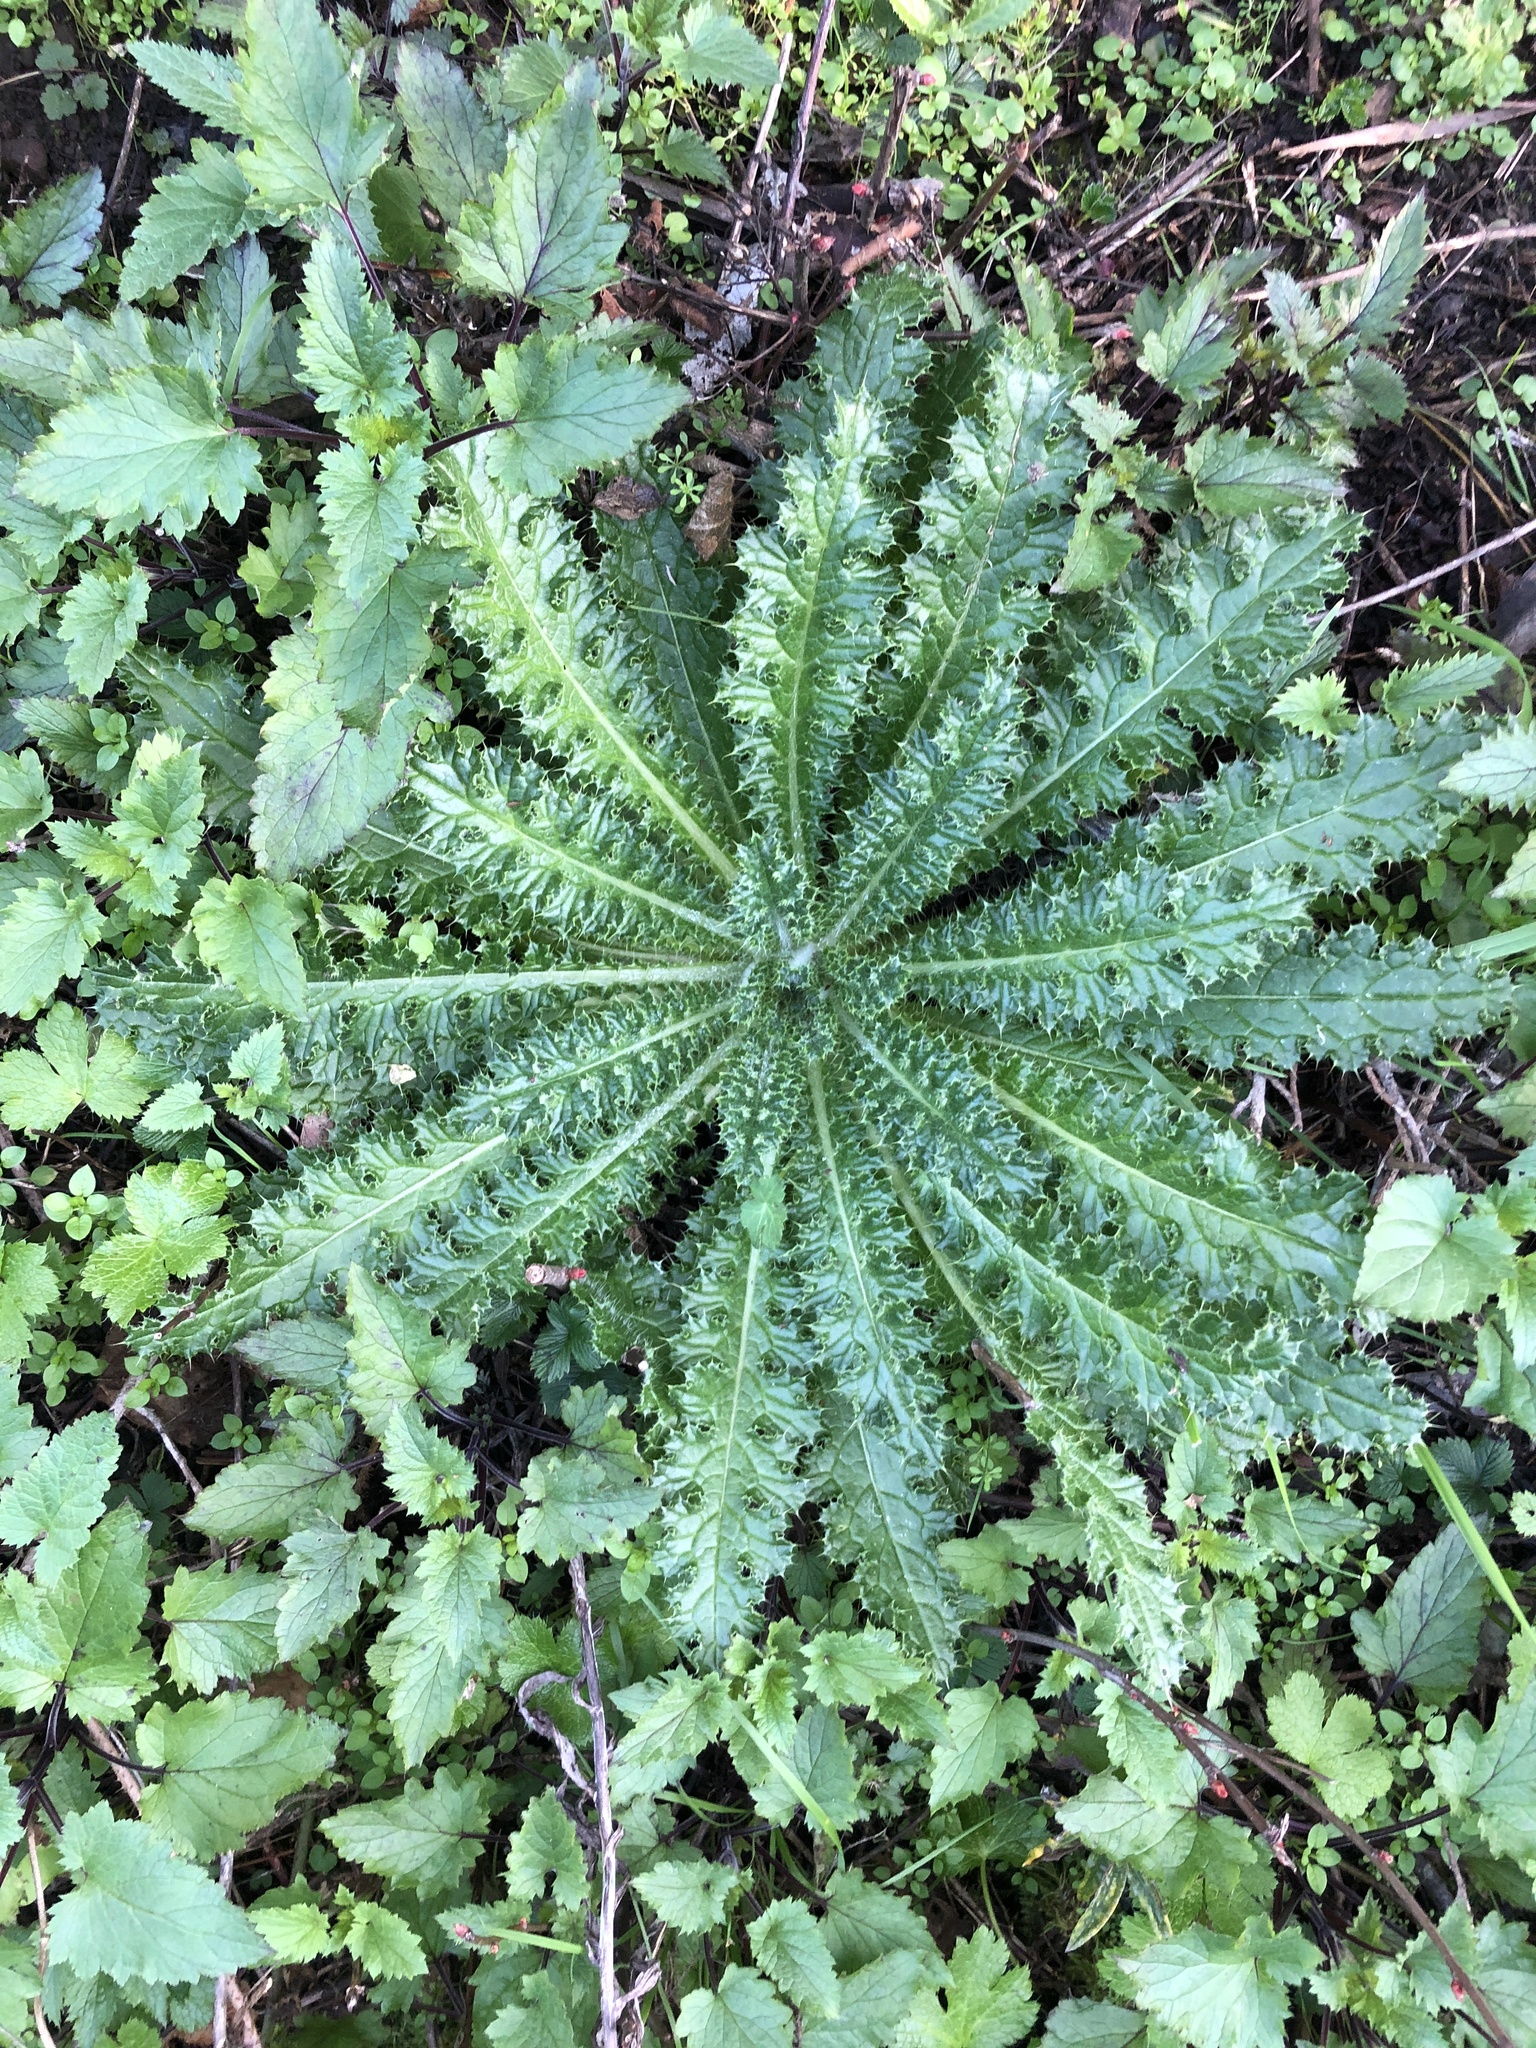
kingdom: Plantae
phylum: Tracheophyta
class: Magnoliopsida
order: Asterales
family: Asteraceae
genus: Cirsium
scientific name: Cirsium brevistylum
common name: Indian thistle
